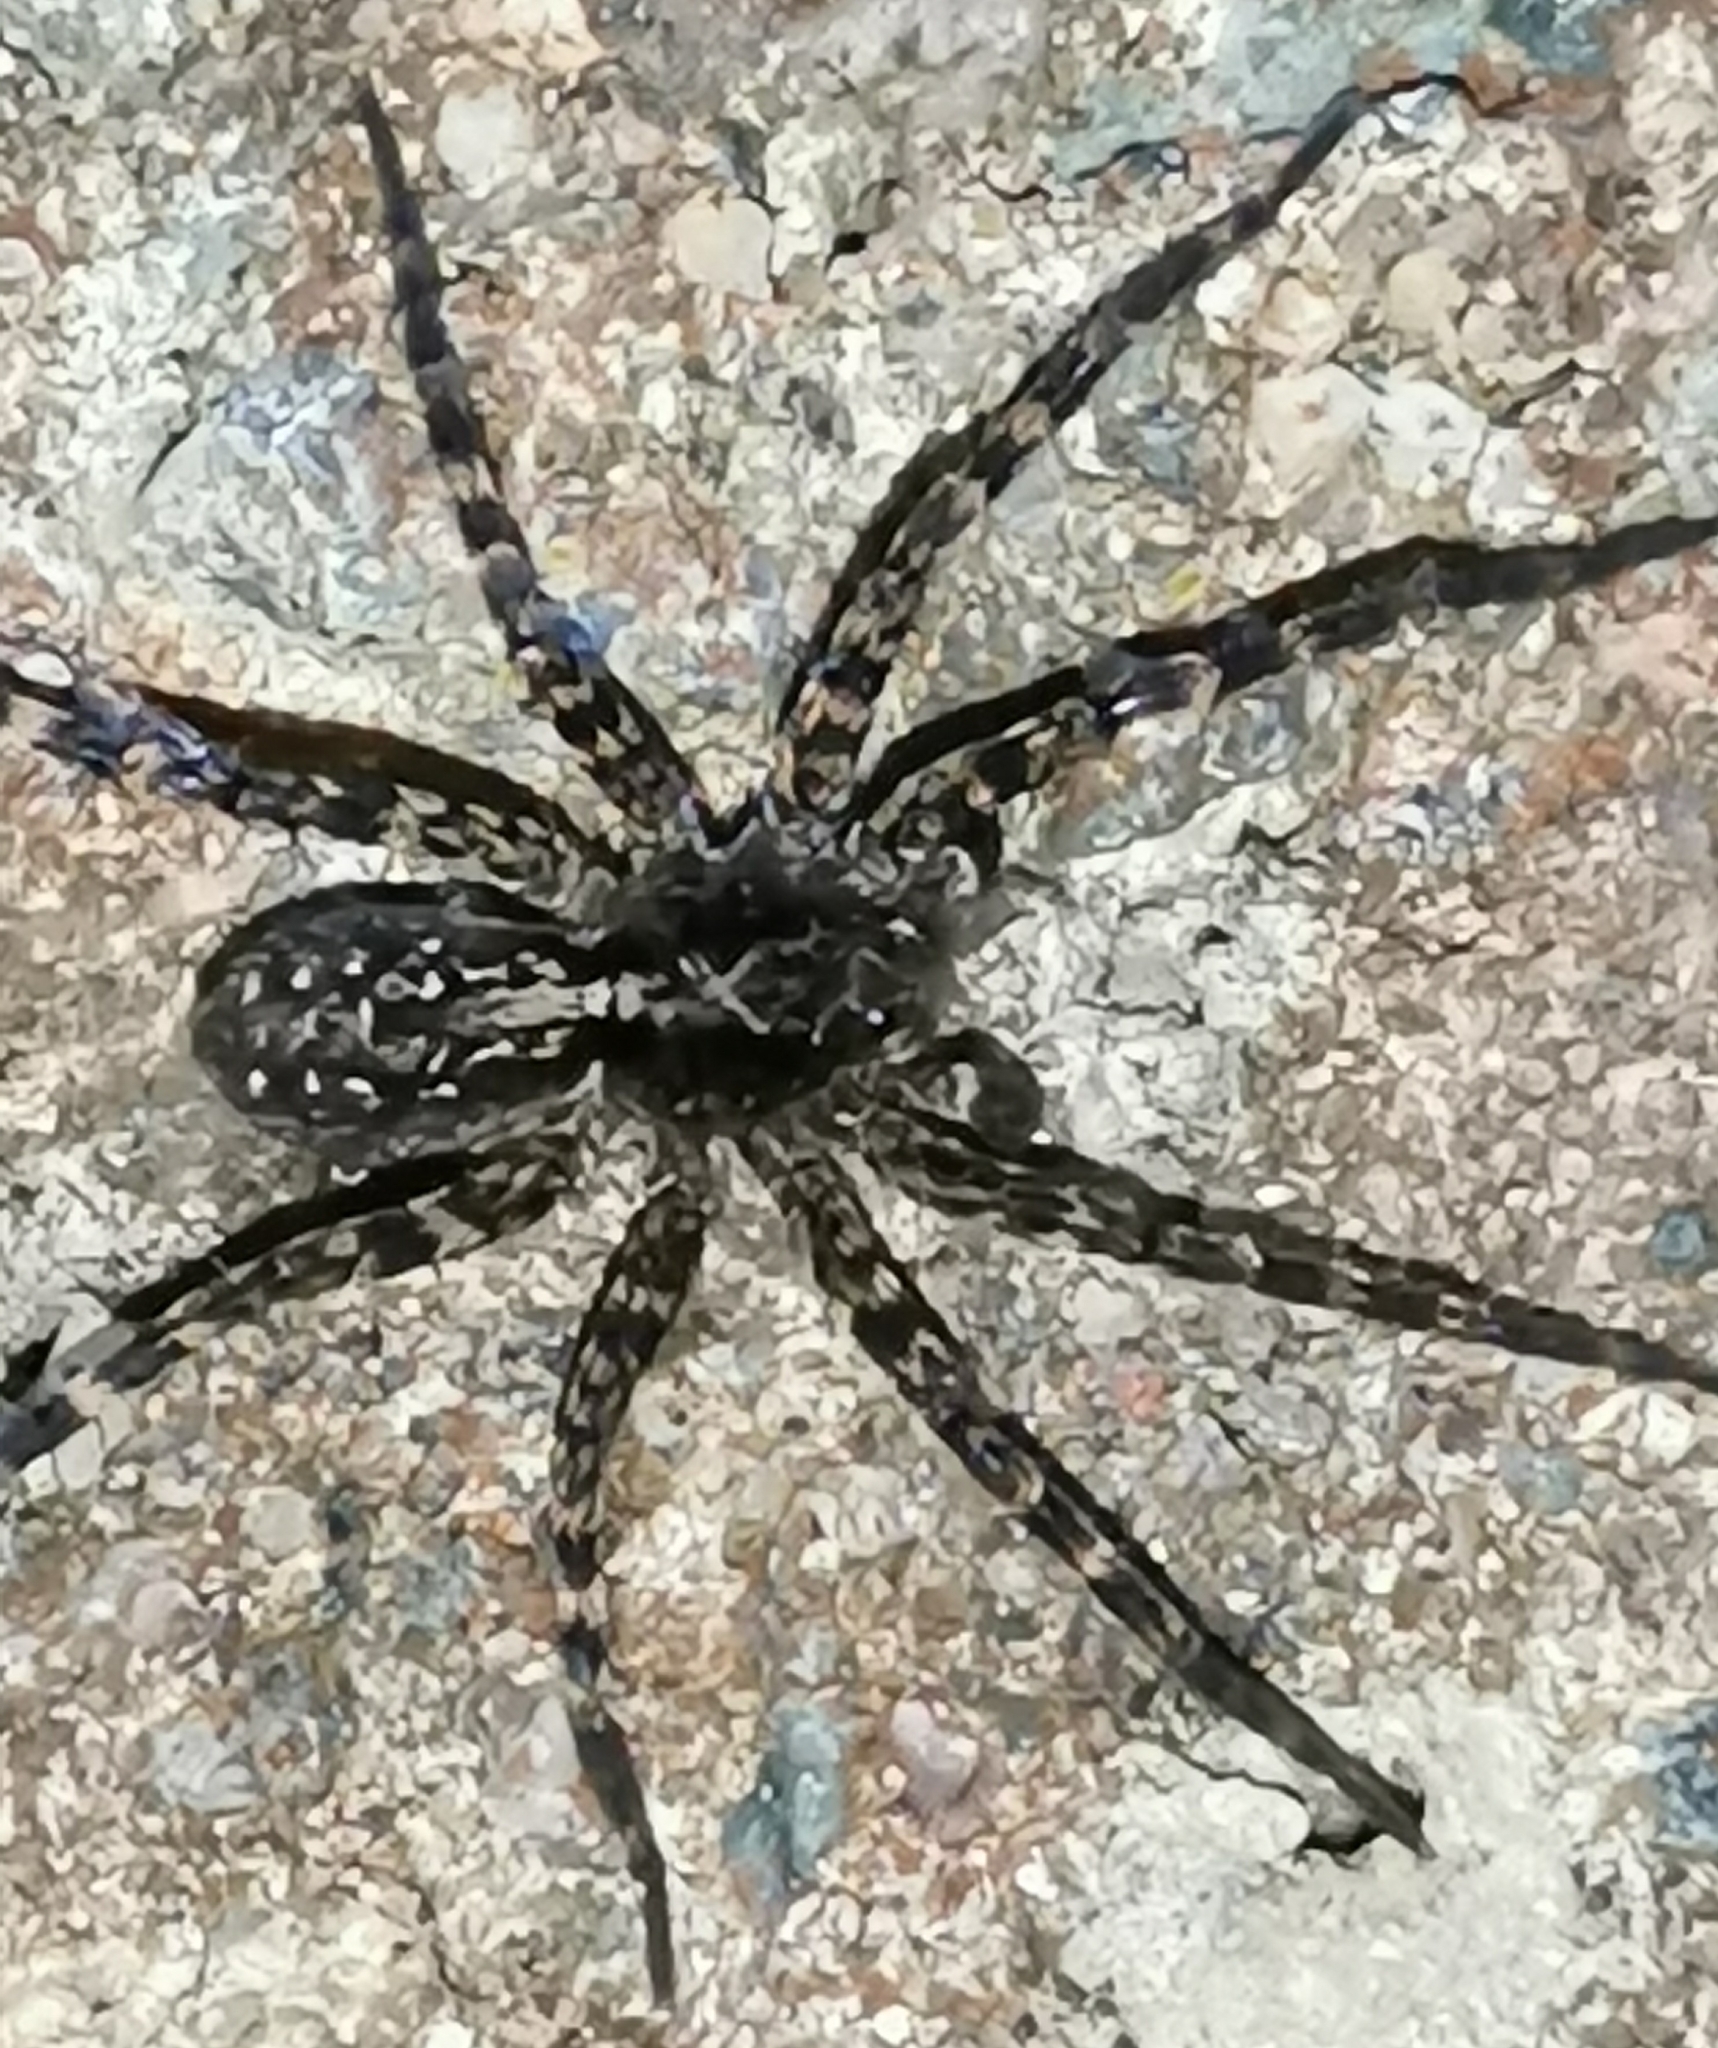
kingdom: Animalia
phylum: Arthropoda
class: Arachnida
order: Araneae
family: Lycosidae
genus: Acantholycosa
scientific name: Acantholycosa lignaria
